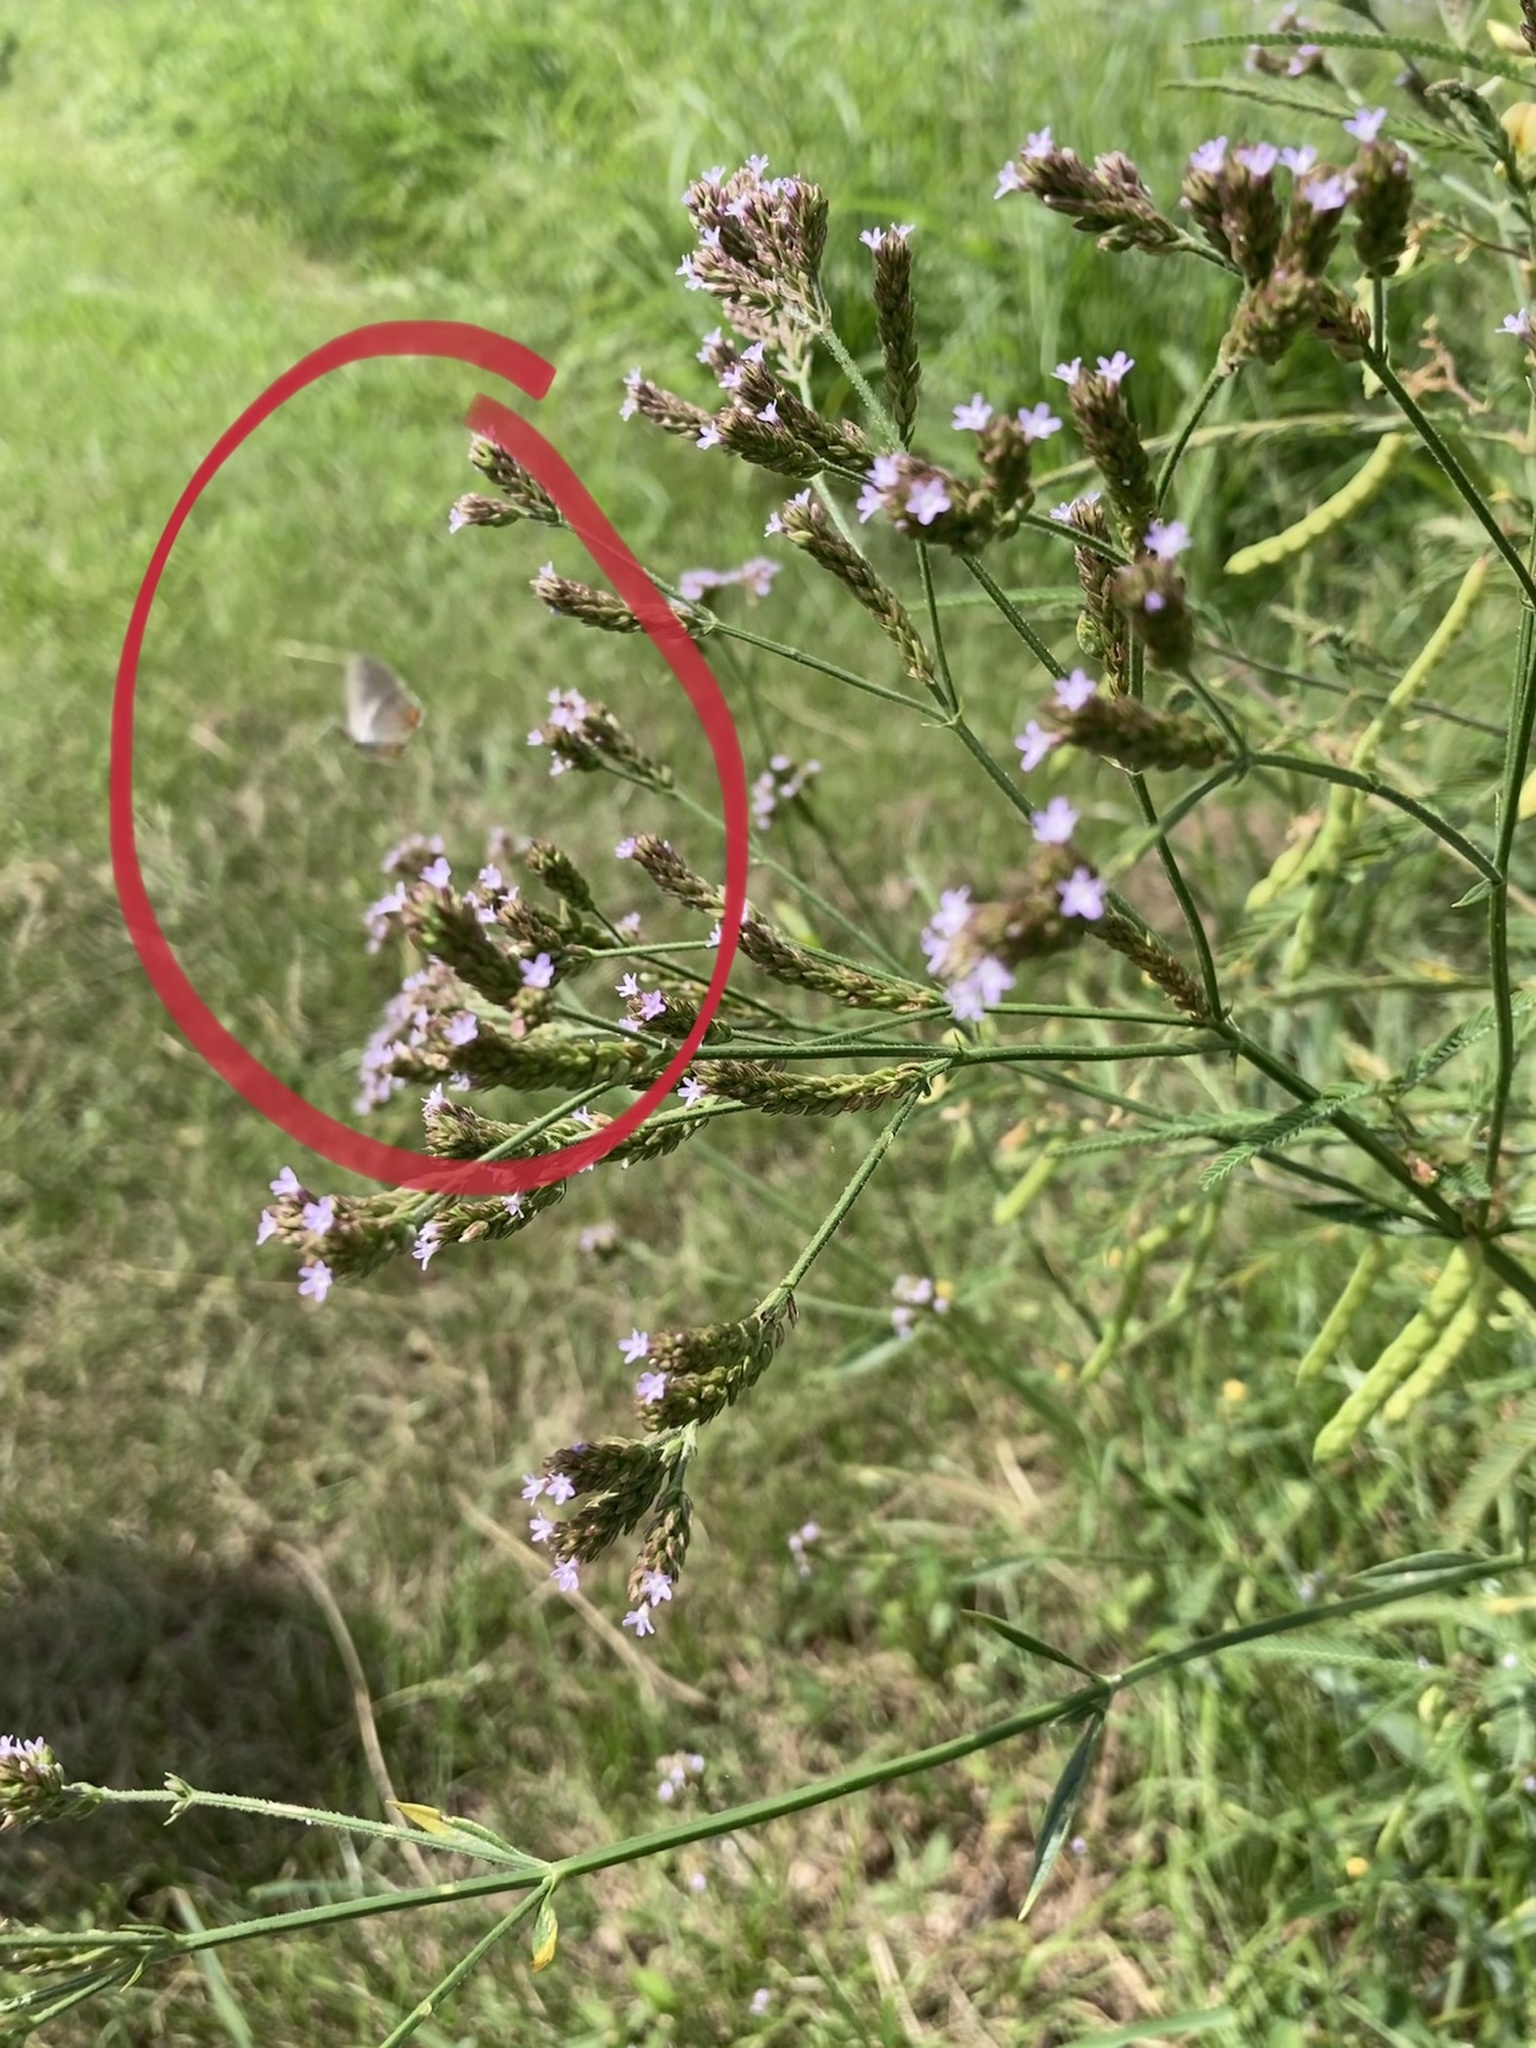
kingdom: Animalia
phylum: Arthropoda
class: Insecta
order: Lepidoptera
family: Lycaenidae
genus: Strymon
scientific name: Strymon melinus
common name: Gray hairstreak
